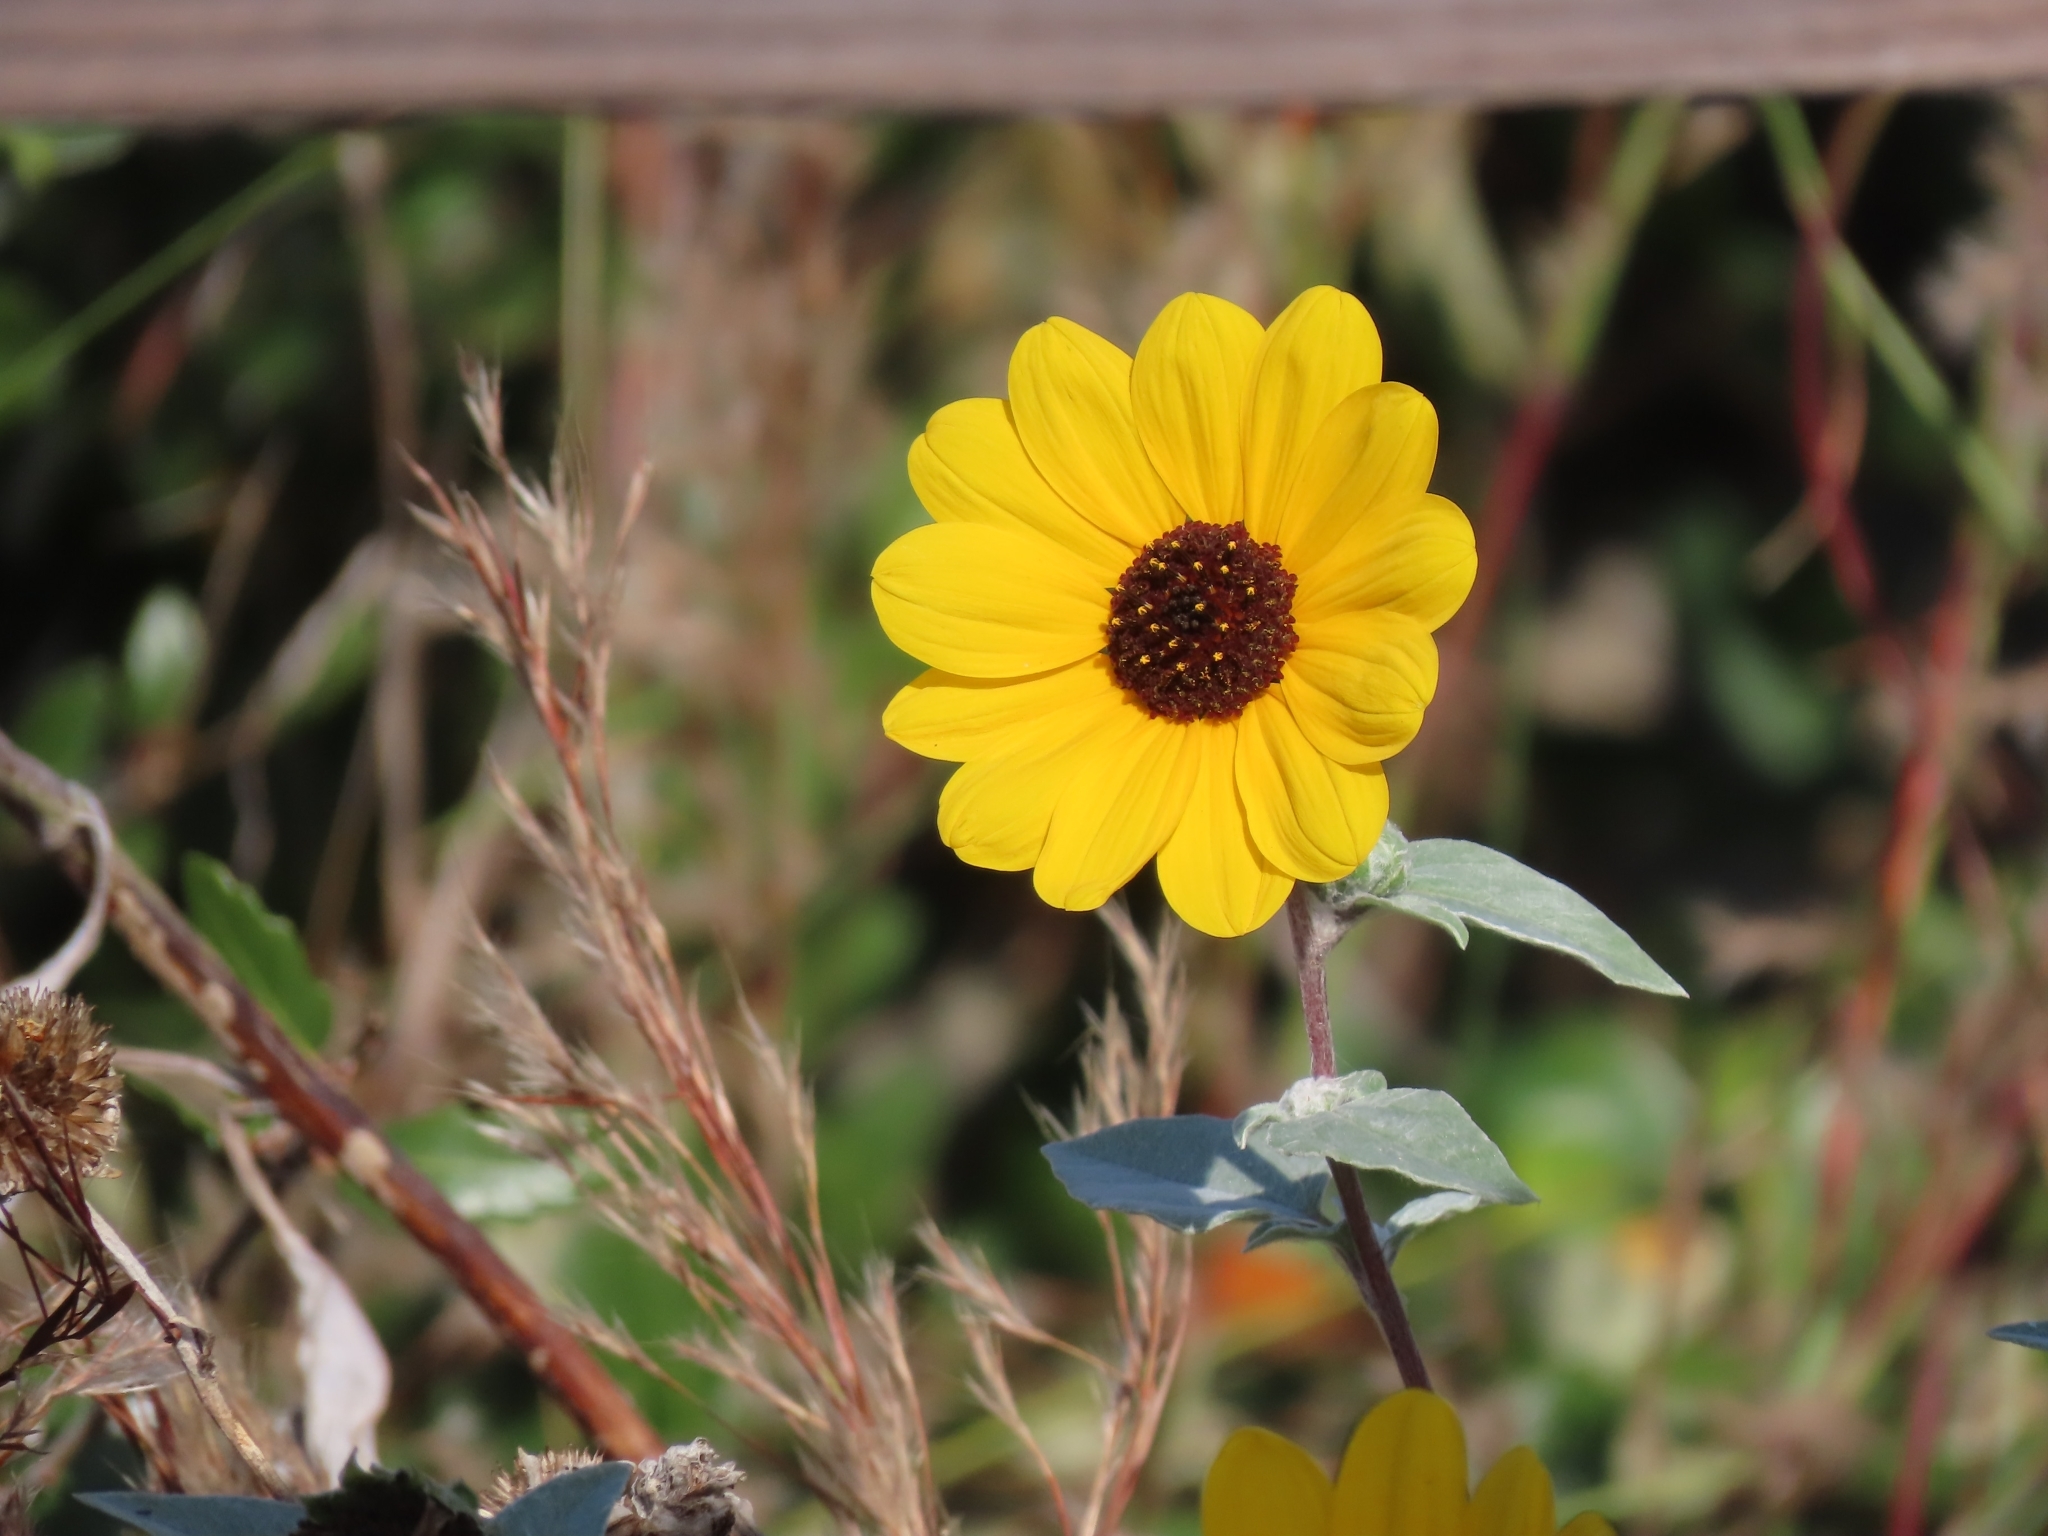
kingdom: Plantae
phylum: Tracheophyta
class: Magnoliopsida
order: Asterales
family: Asteraceae
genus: Helianthus
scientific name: Helianthus argophyllus
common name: Silverleaf sunflower
